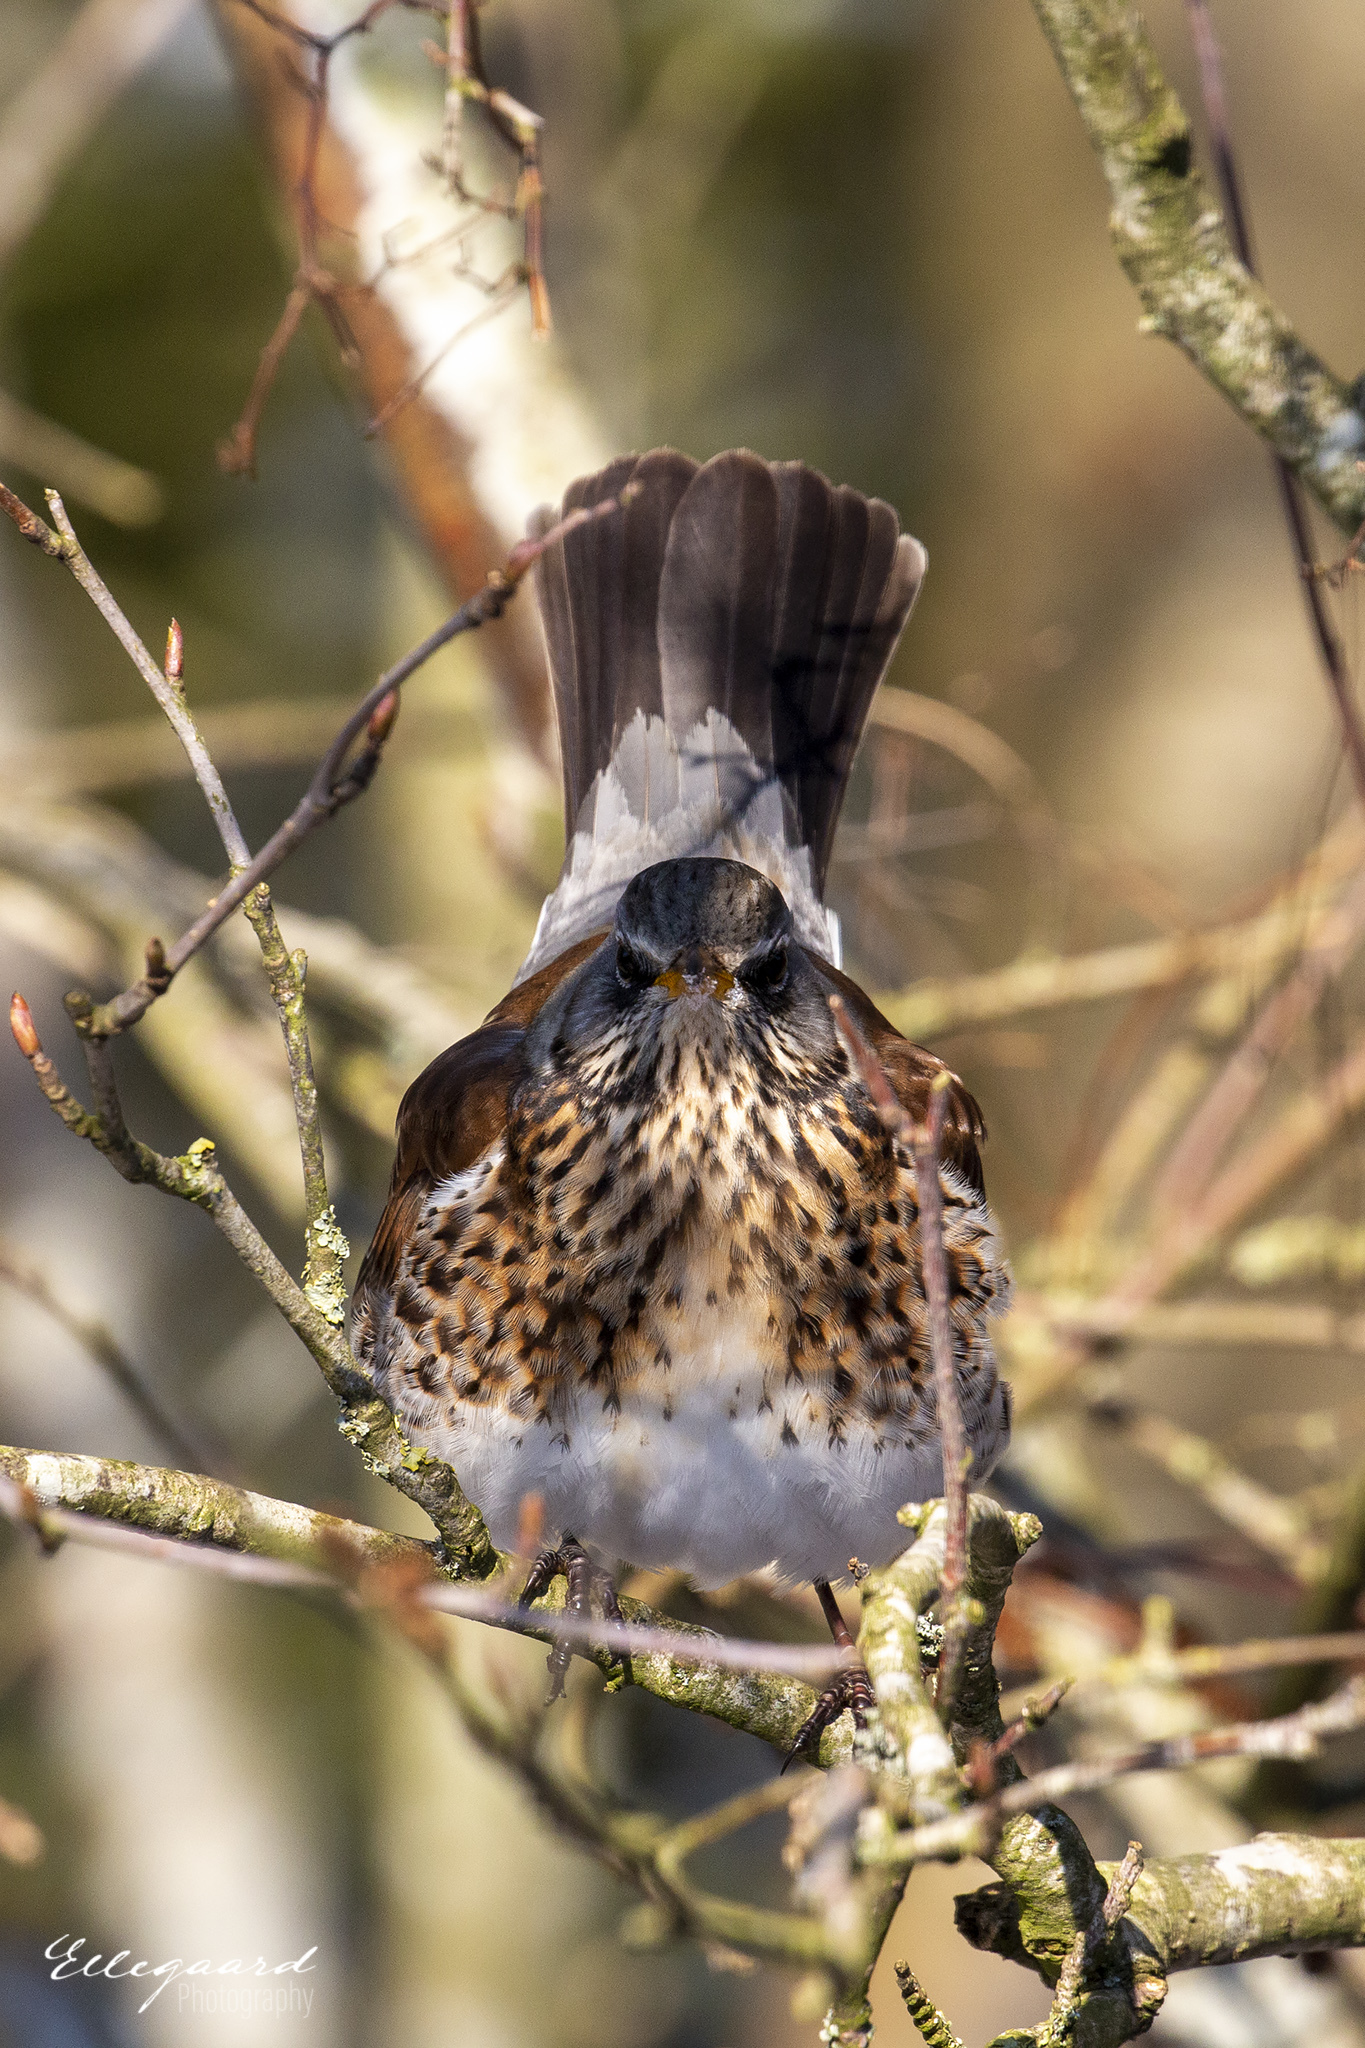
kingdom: Animalia
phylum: Chordata
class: Aves
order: Passeriformes
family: Turdidae
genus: Turdus
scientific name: Turdus pilaris
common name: Fieldfare
